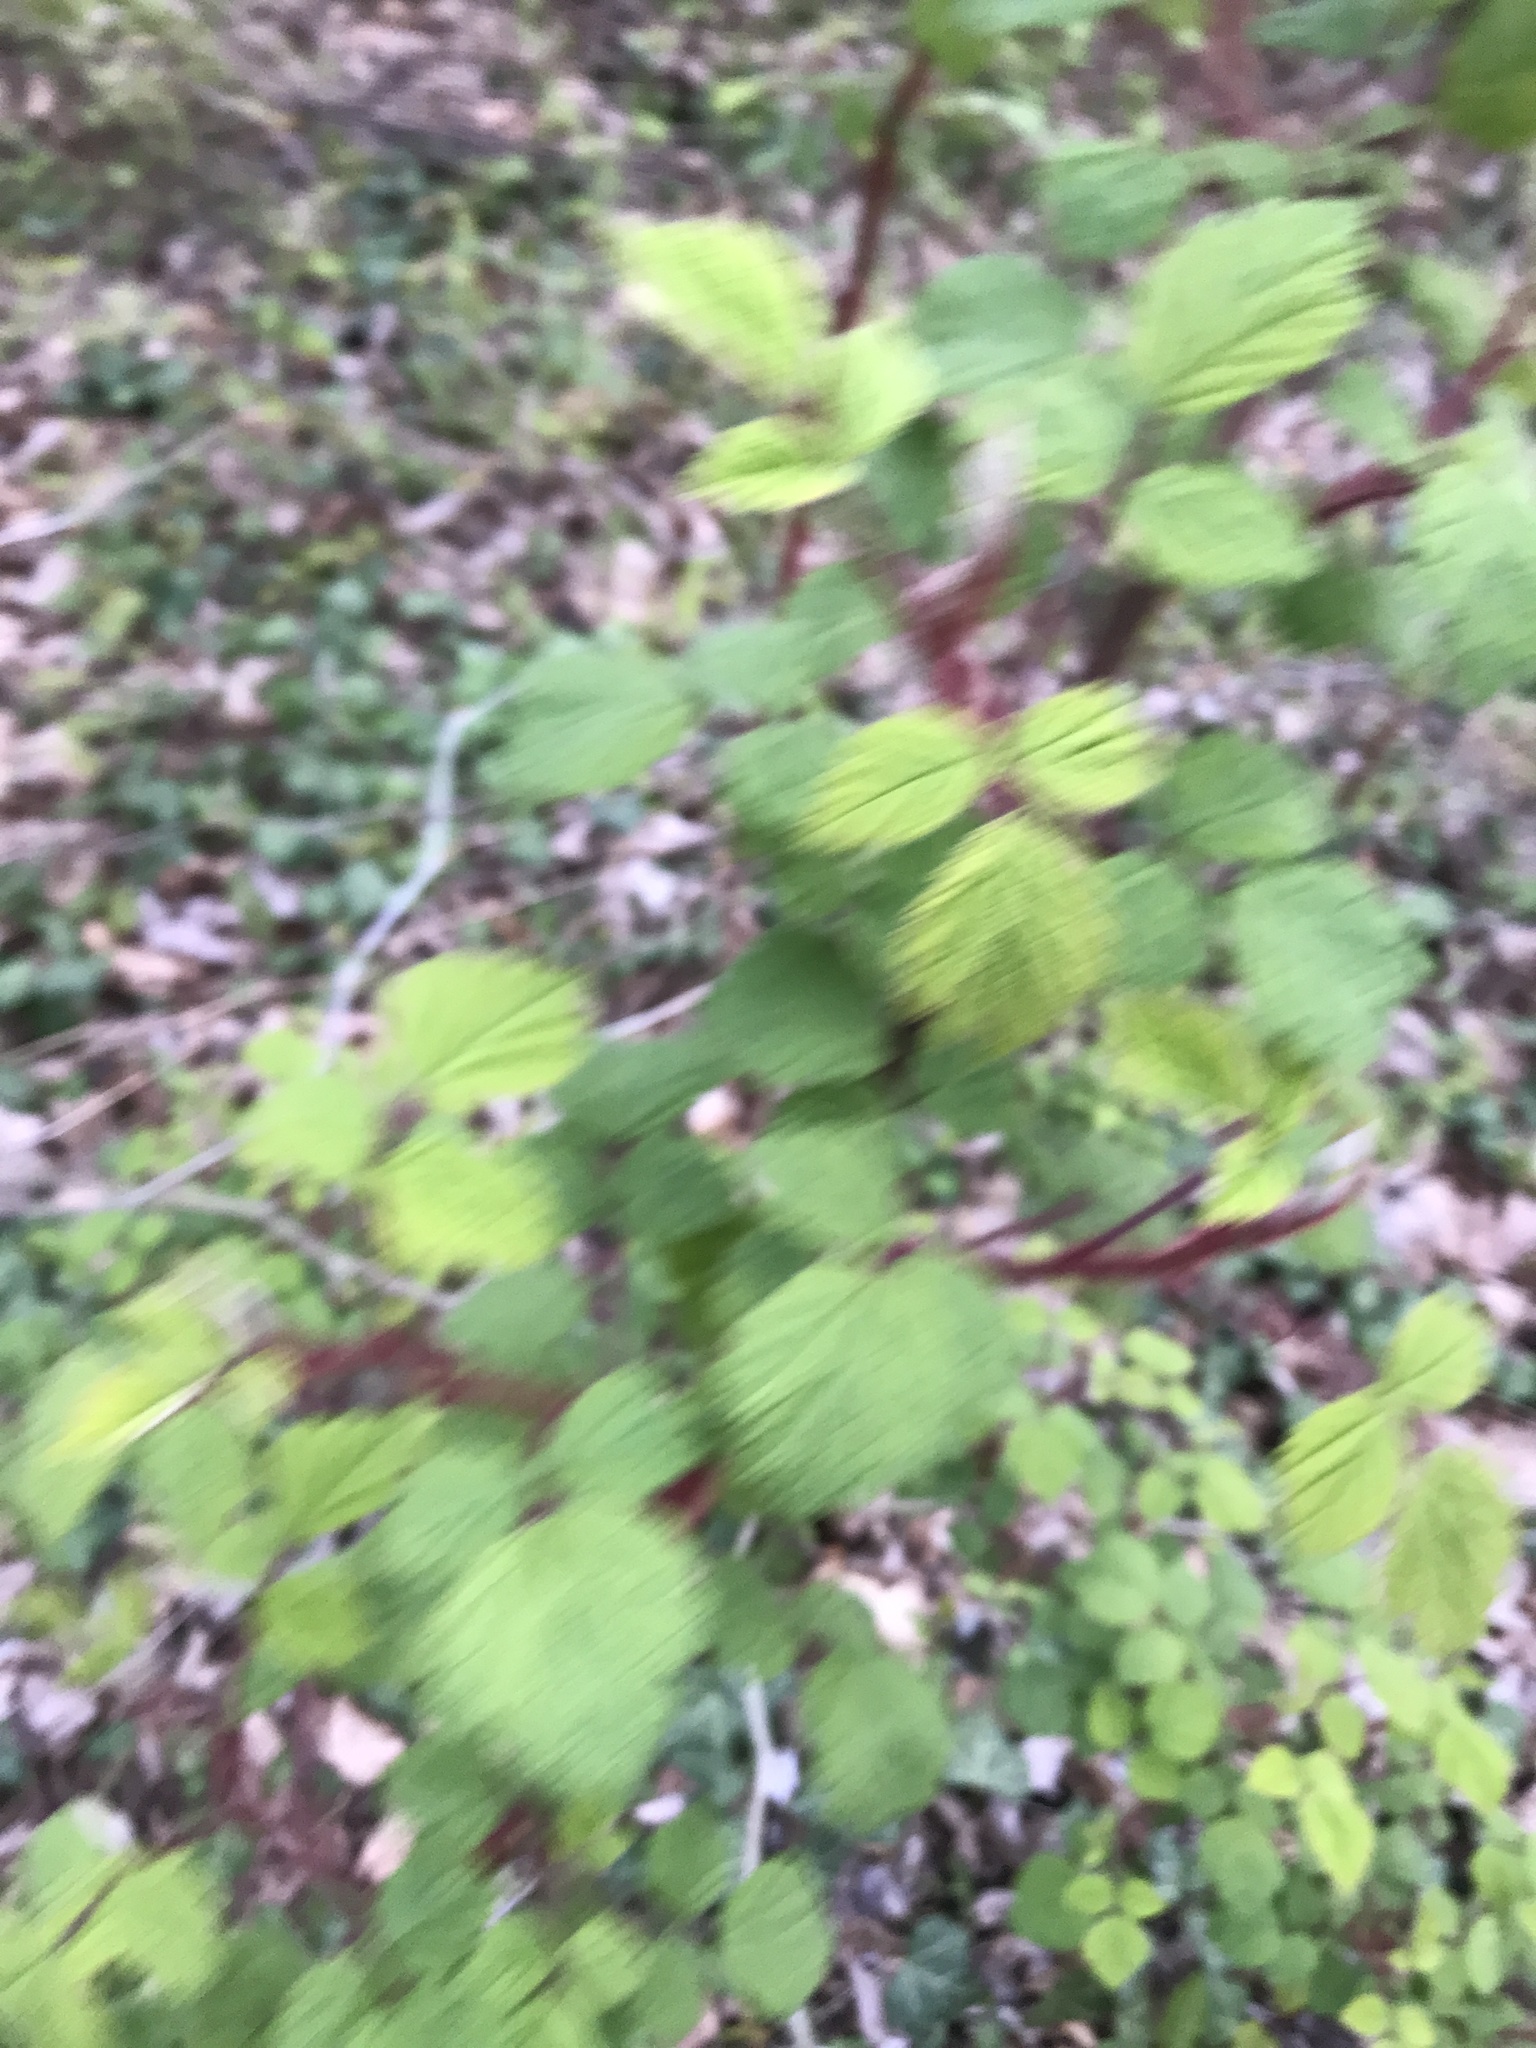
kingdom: Plantae
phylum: Tracheophyta
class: Magnoliopsida
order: Rosales
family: Rosaceae
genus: Rubus
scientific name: Rubus phoenicolasius
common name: Japanese wineberry
